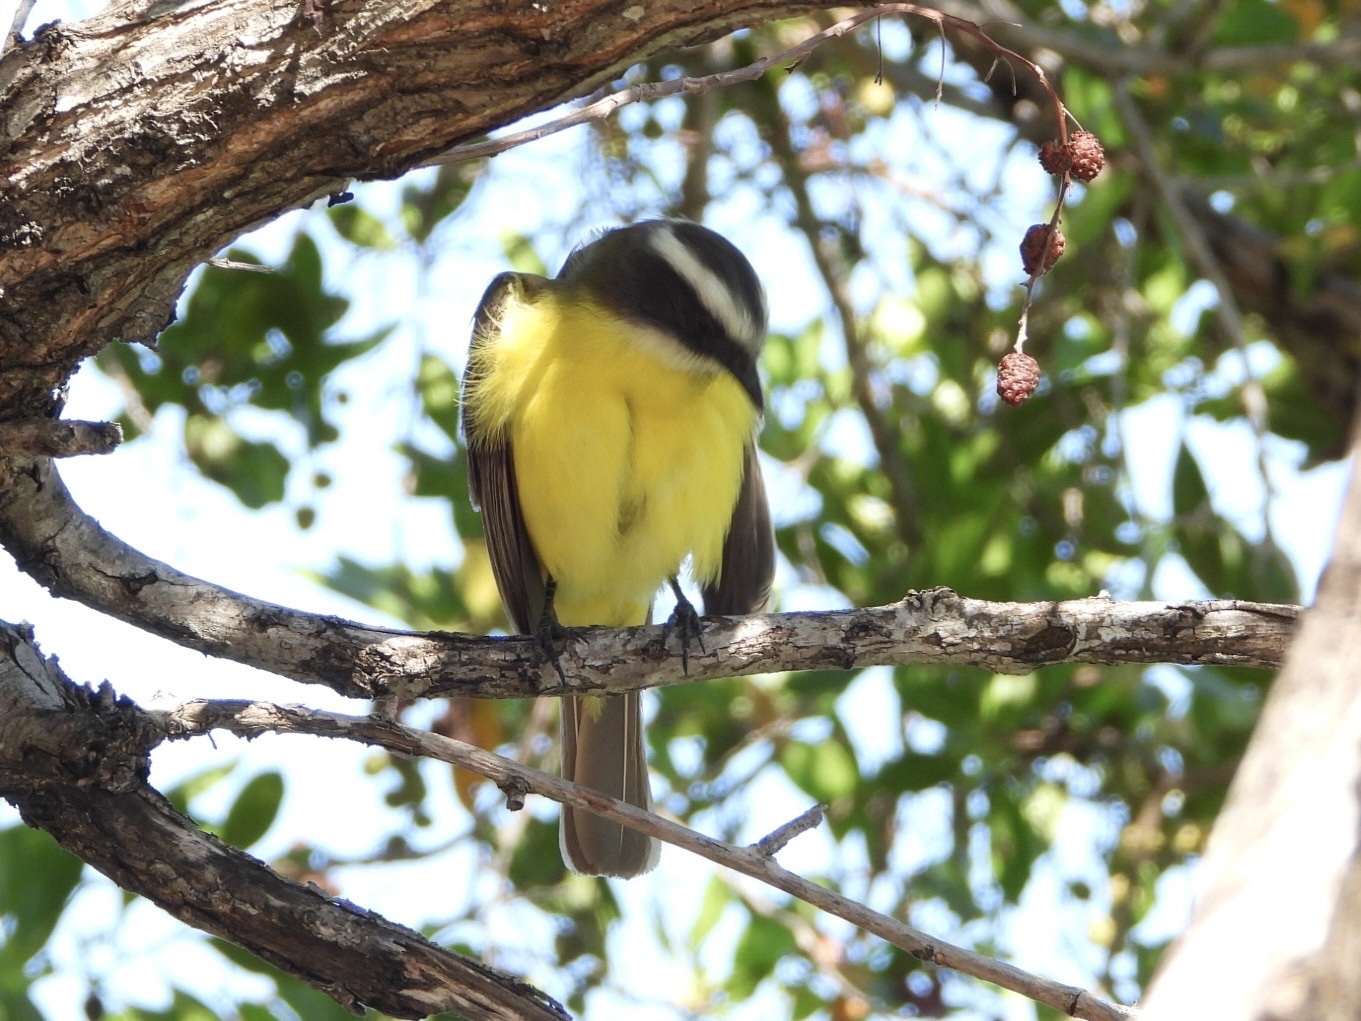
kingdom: Animalia
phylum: Chordata
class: Aves
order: Passeriformes
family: Tyrannidae
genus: Myiozetetes
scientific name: Myiozetetes similis
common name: Social flycatcher
